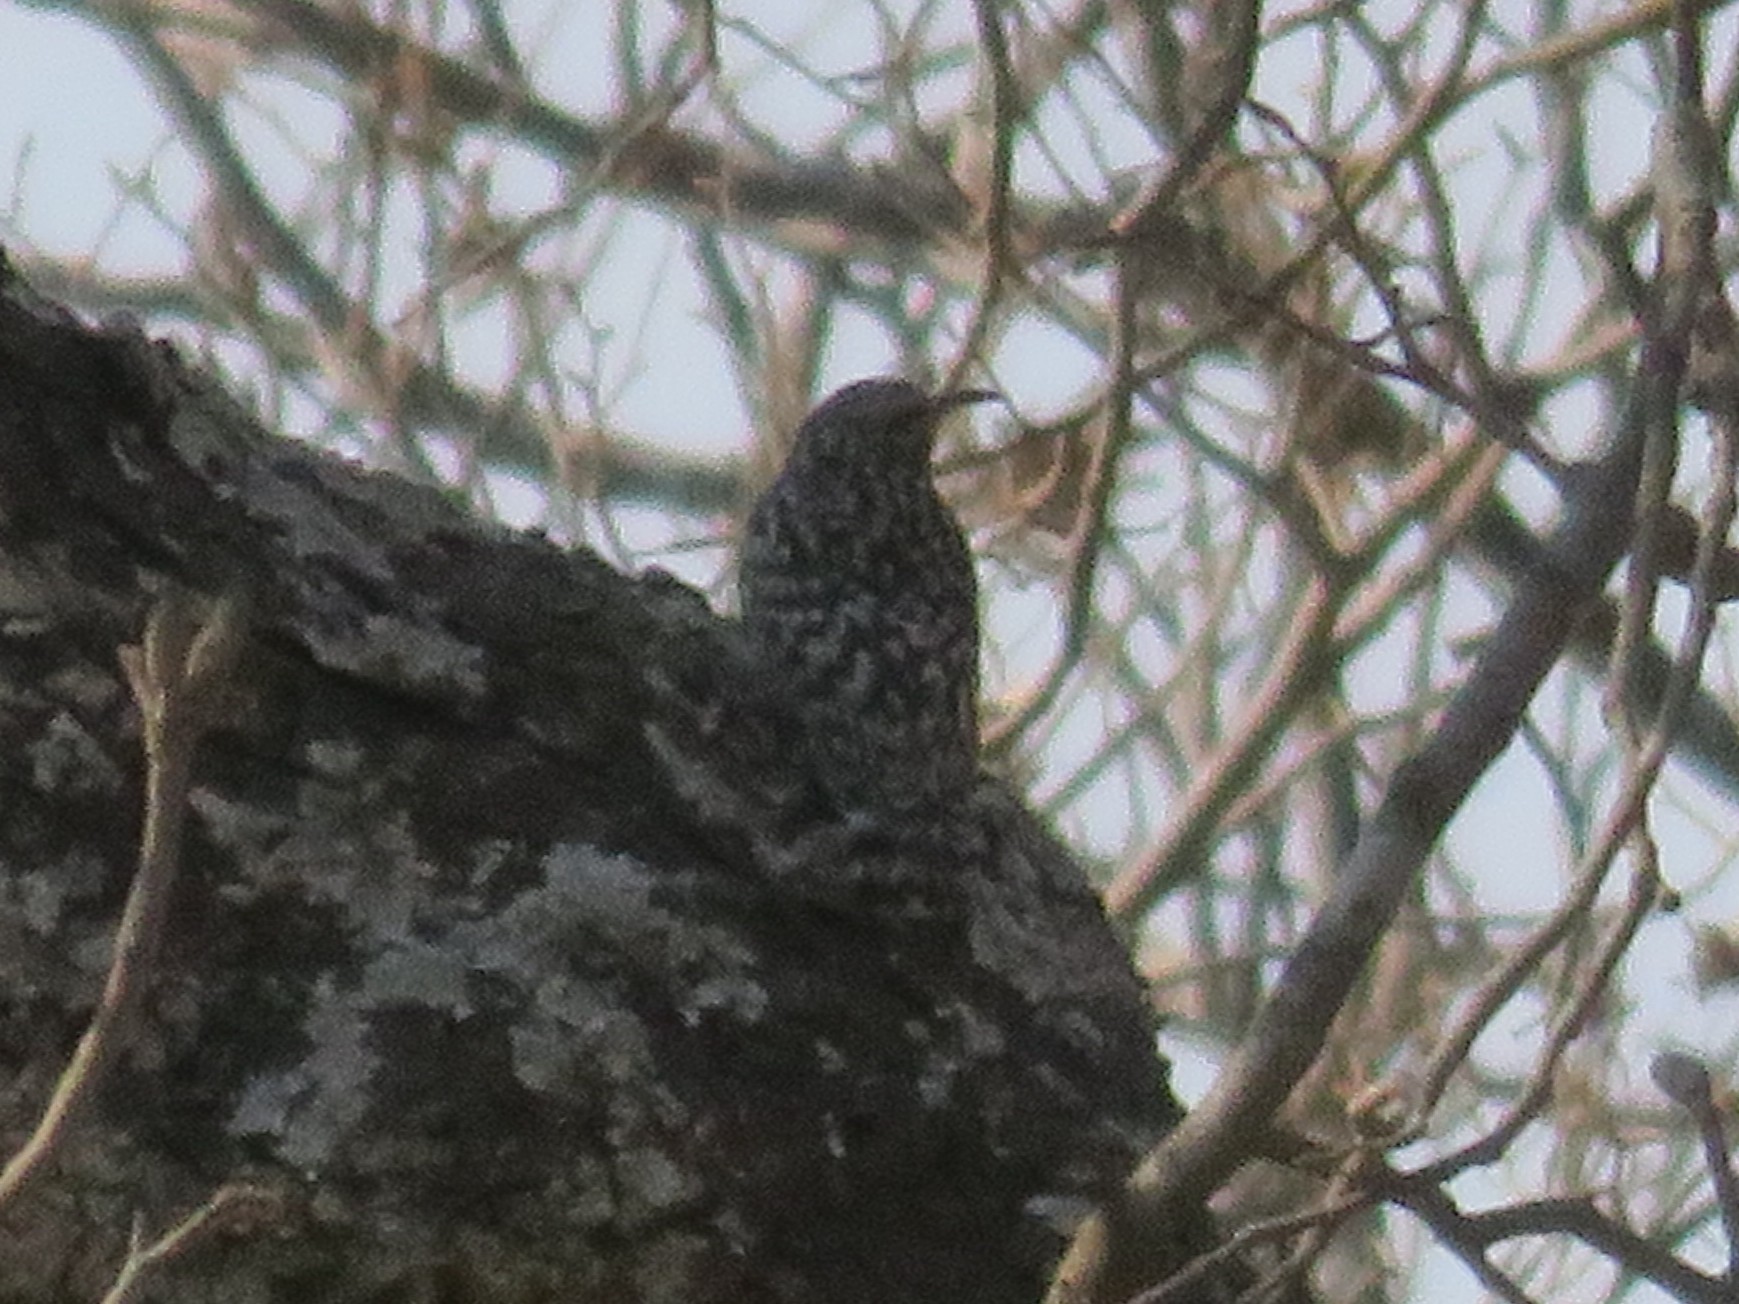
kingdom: Animalia
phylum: Chordata
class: Aves
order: Passeriformes
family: Certhiidae
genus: Salpornis
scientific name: Salpornis salvadori
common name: African spotted creeper
